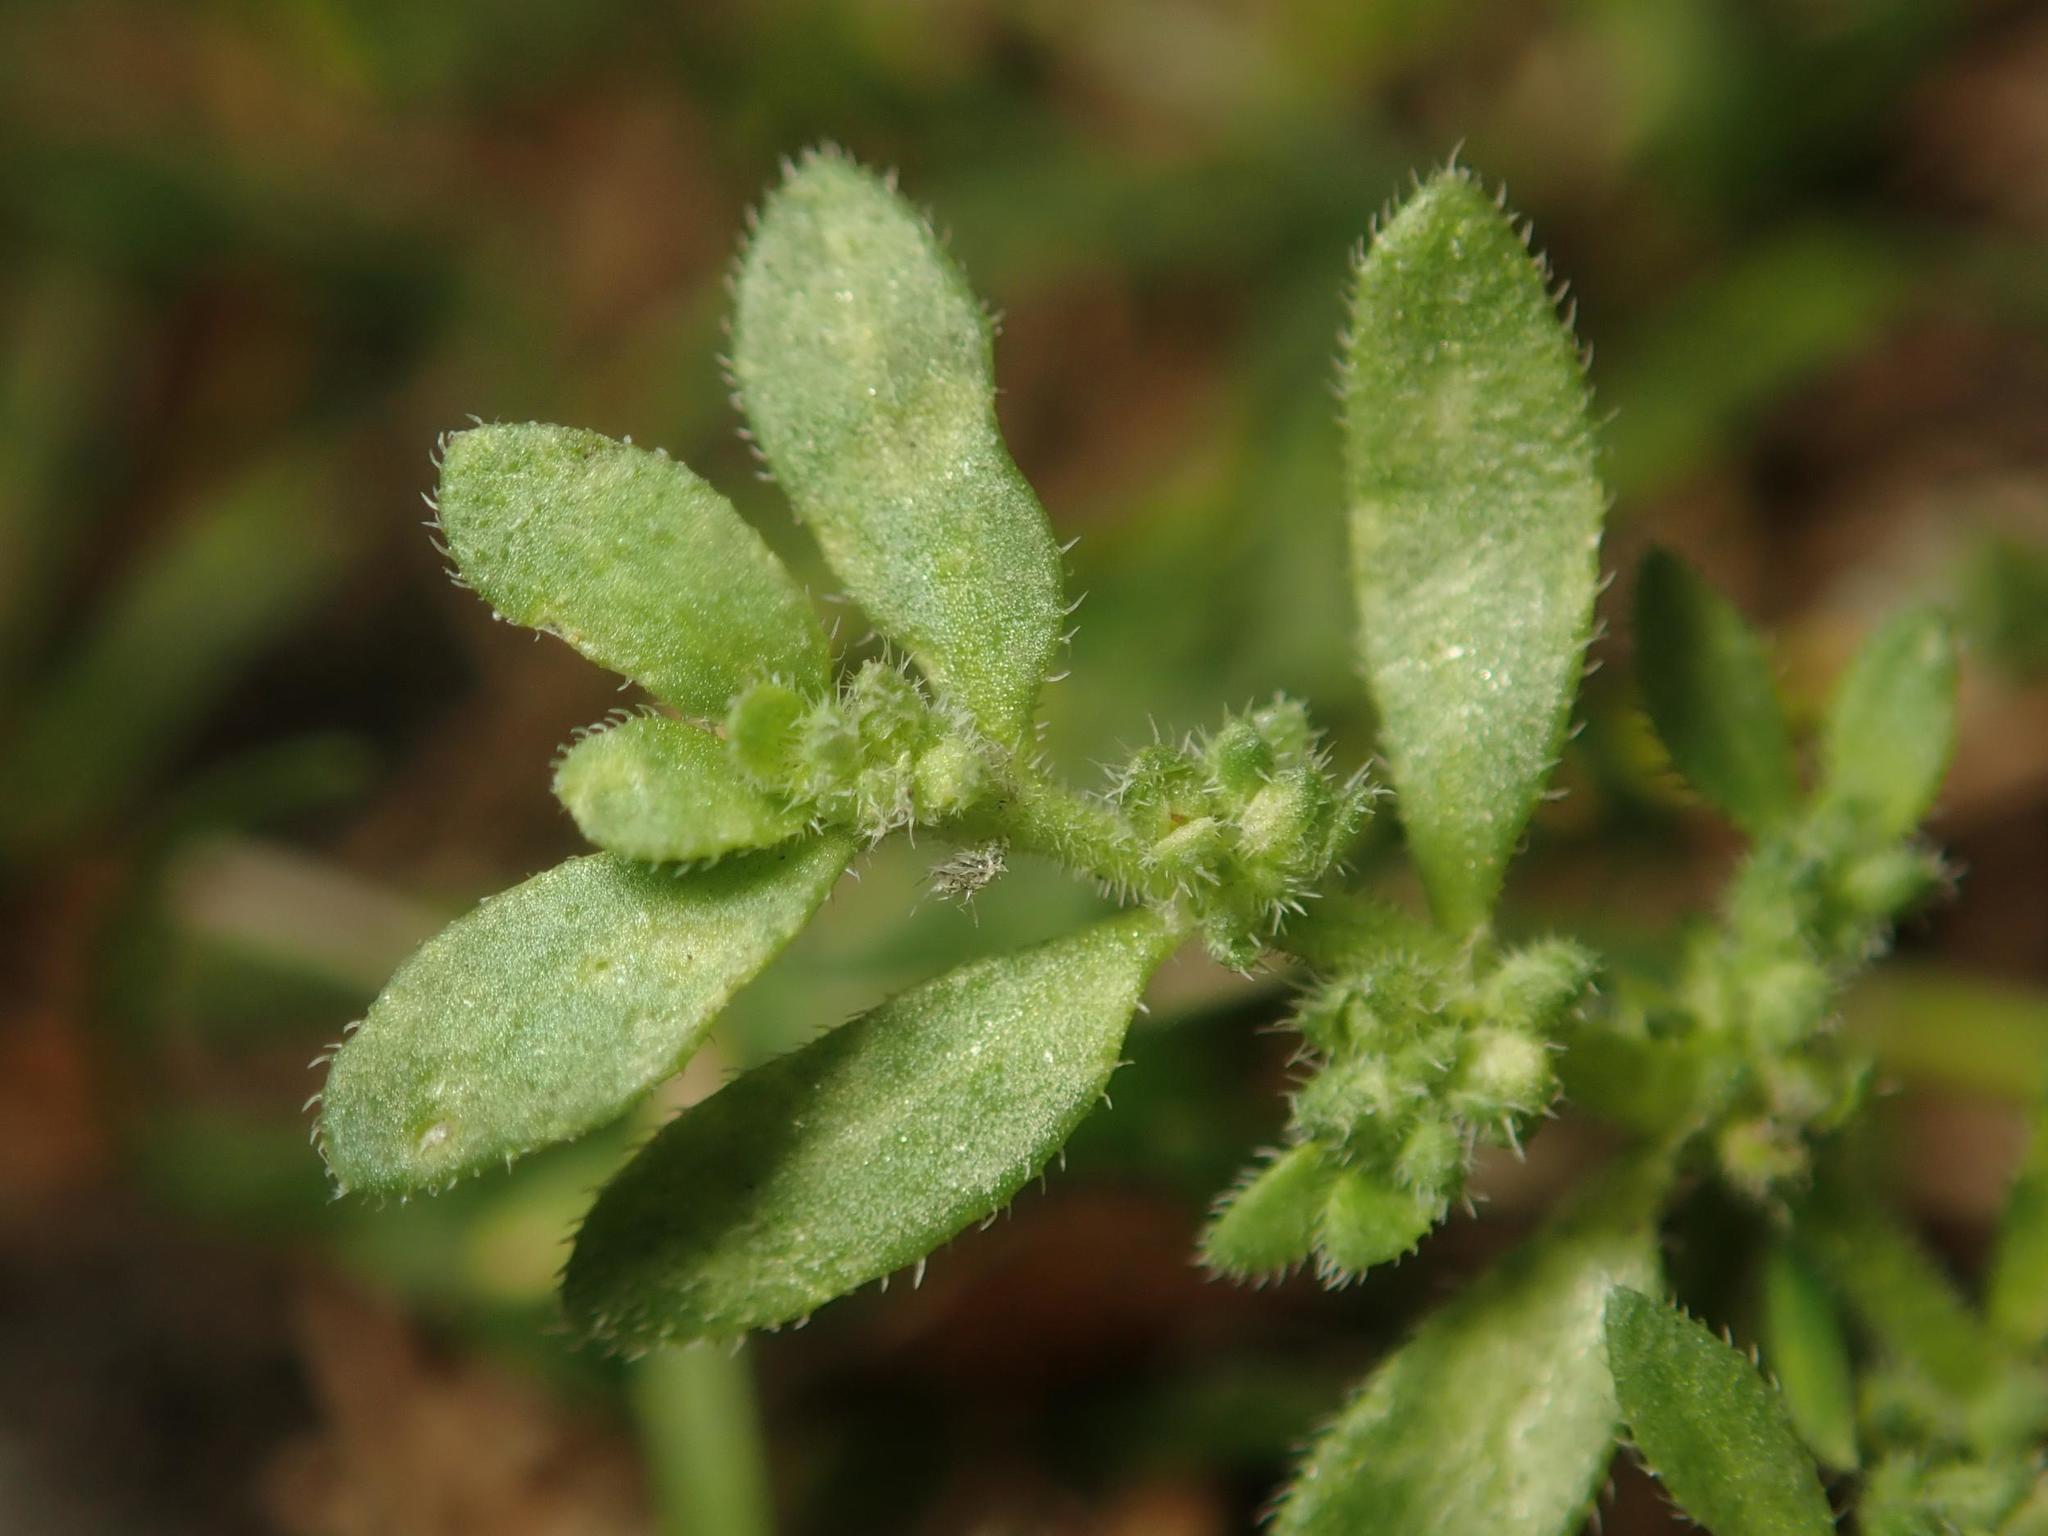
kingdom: Plantae
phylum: Tracheophyta
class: Magnoliopsida
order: Caryophyllales
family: Caryophyllaceae
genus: Herniaria
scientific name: Herniaria hirsuta
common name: Hairy rupturewort
